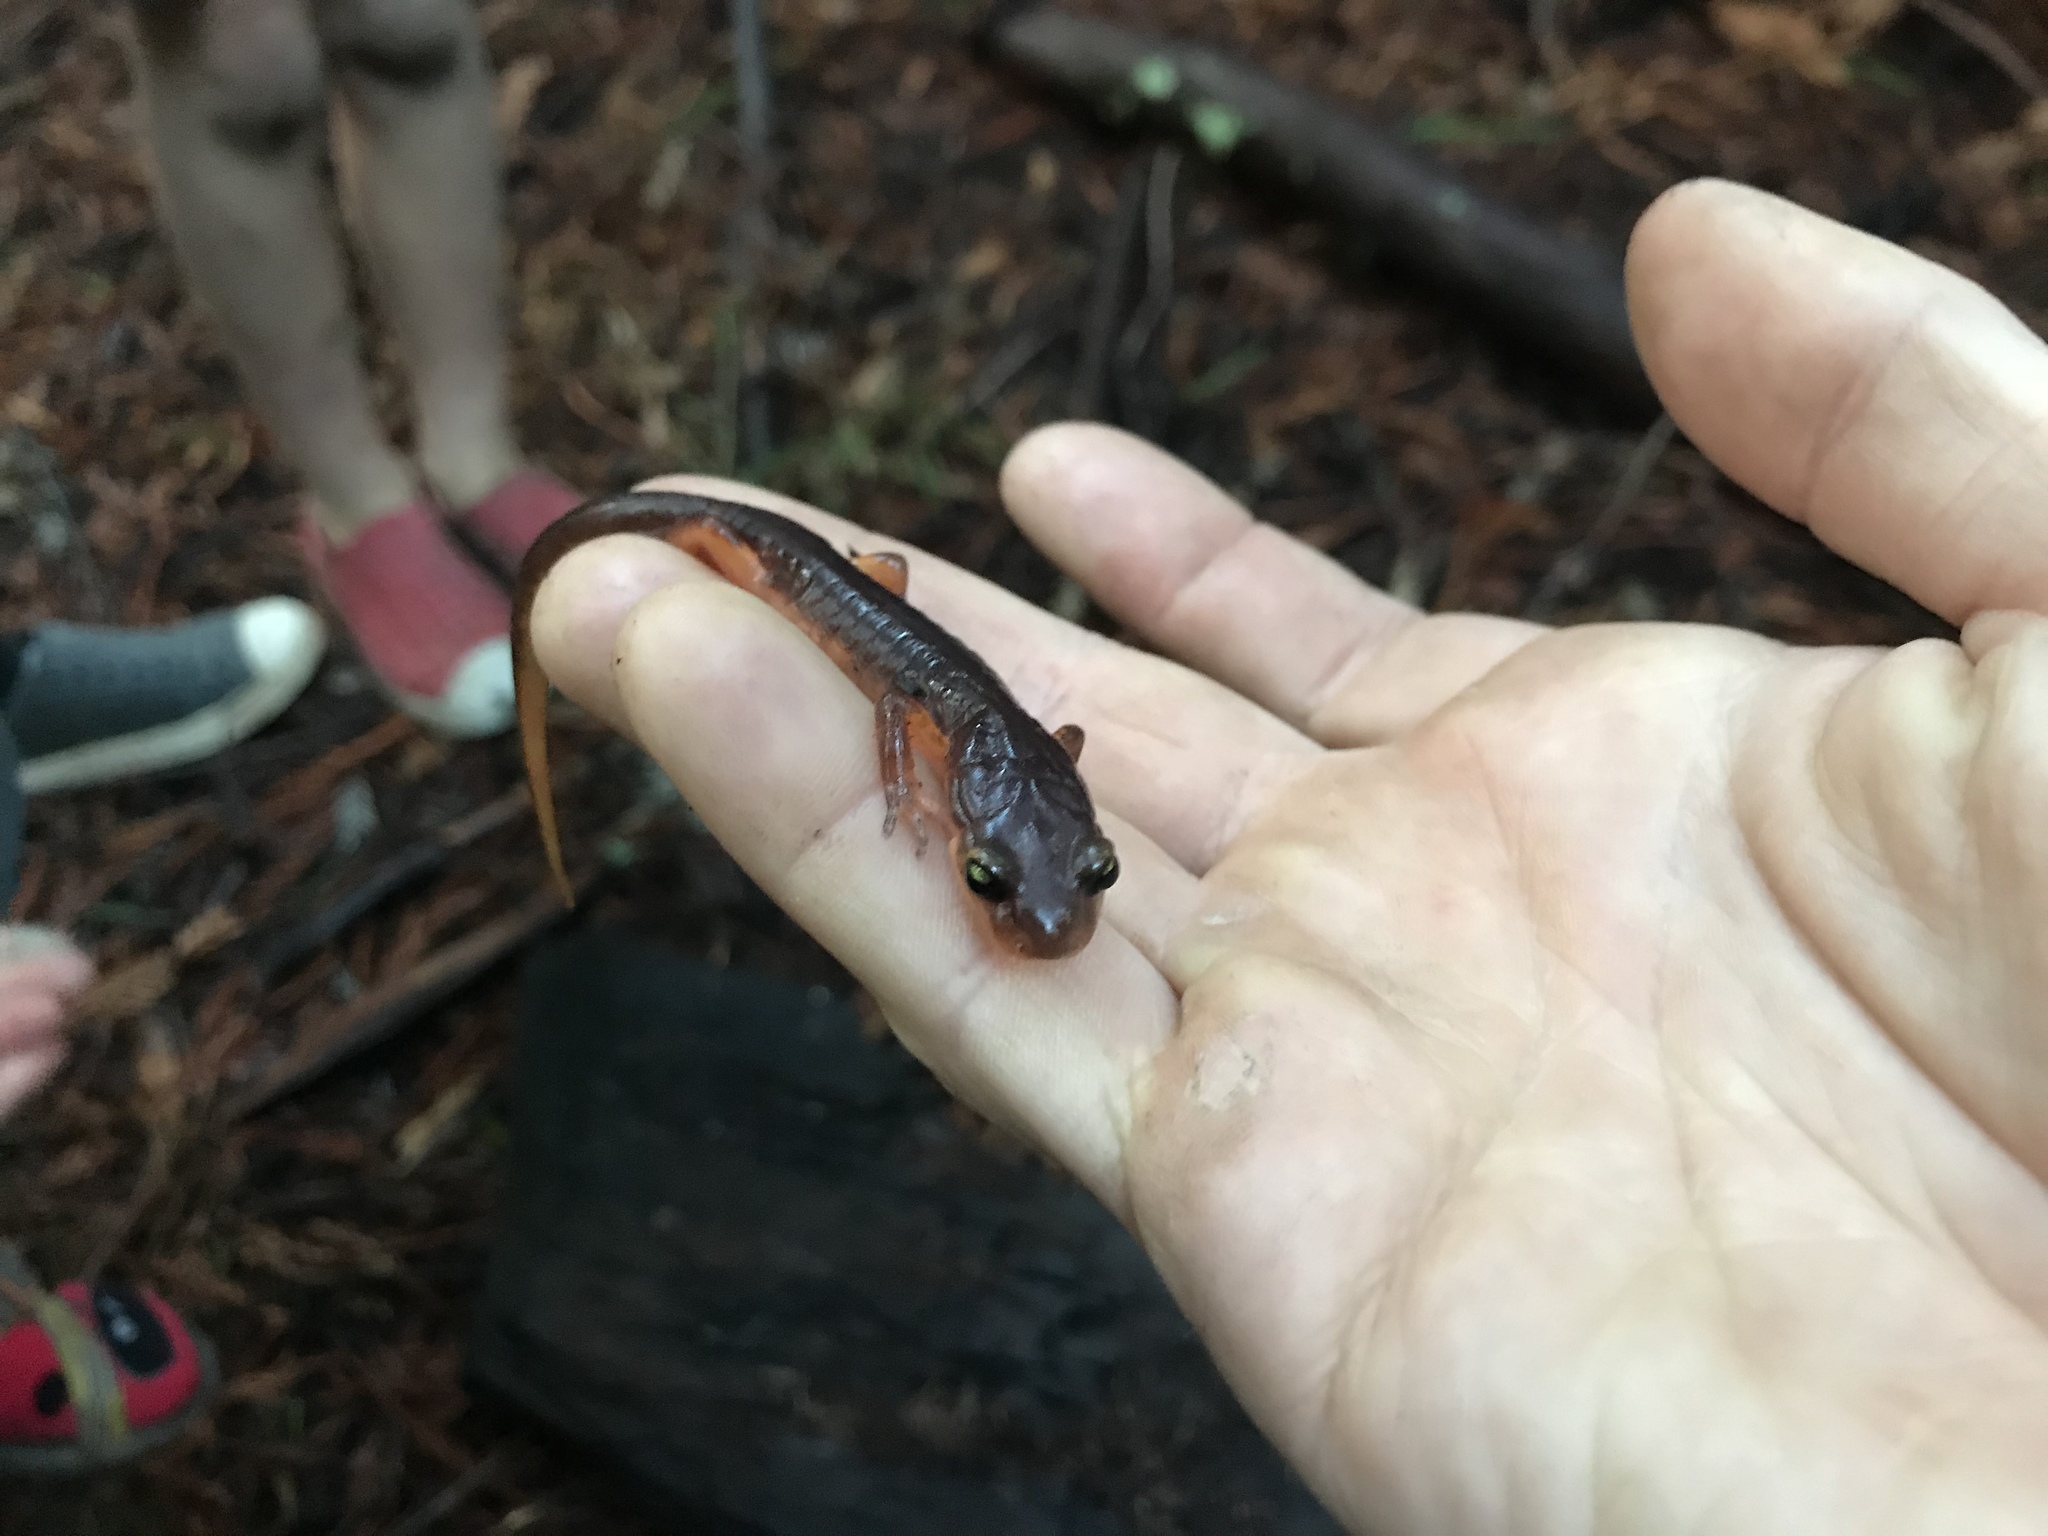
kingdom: Animalia
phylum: Chordata
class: Amphibia
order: Caudata
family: Plethodontidae
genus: Ensatina
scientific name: Ensatina eschscholtzii
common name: Ensatina
